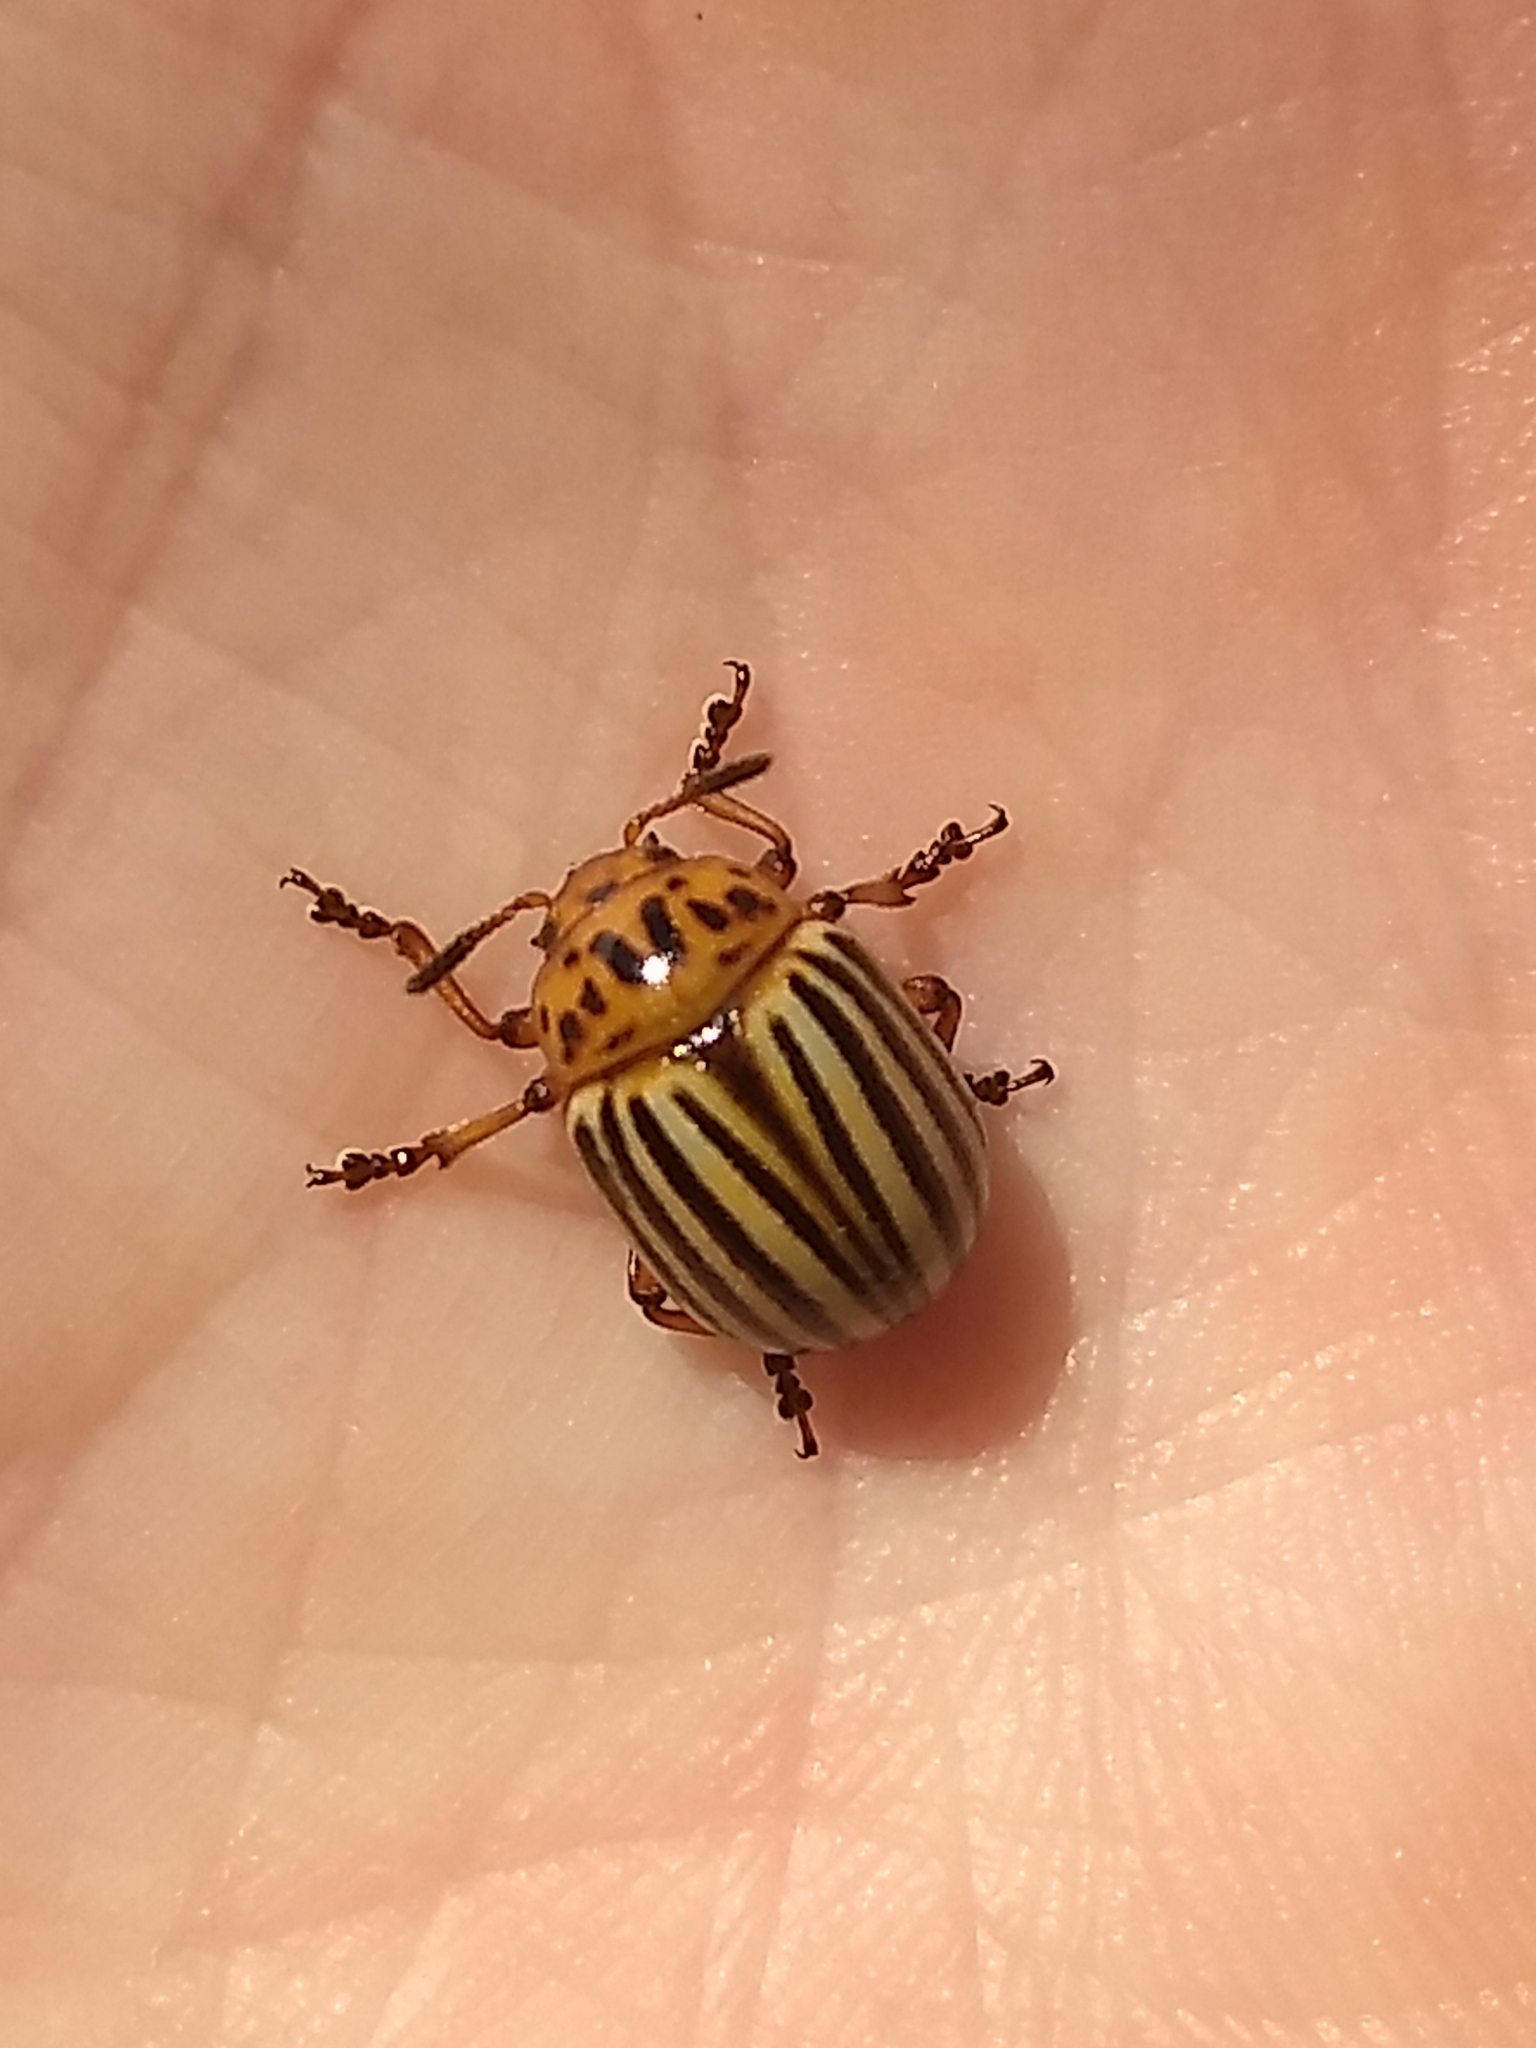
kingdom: Animalia
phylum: Arthropoda
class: Insecta
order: Coleoptera
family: Chrysomelidae
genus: Leptinotarsa
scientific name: Leptinotarsa decemlineata
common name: Colorado potato beetle
